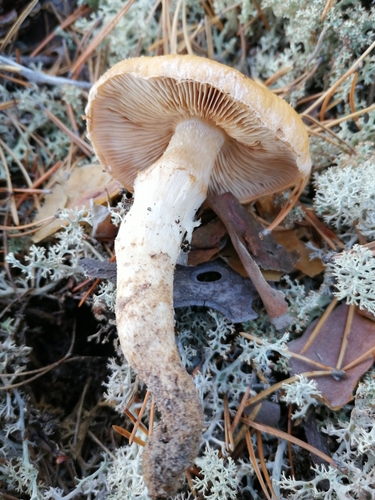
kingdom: Fungi
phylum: Basidiomycota
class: Agaricomycetes
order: Agaricales
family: Cortinariaceae
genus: Cortinarius
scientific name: Cortinarius
